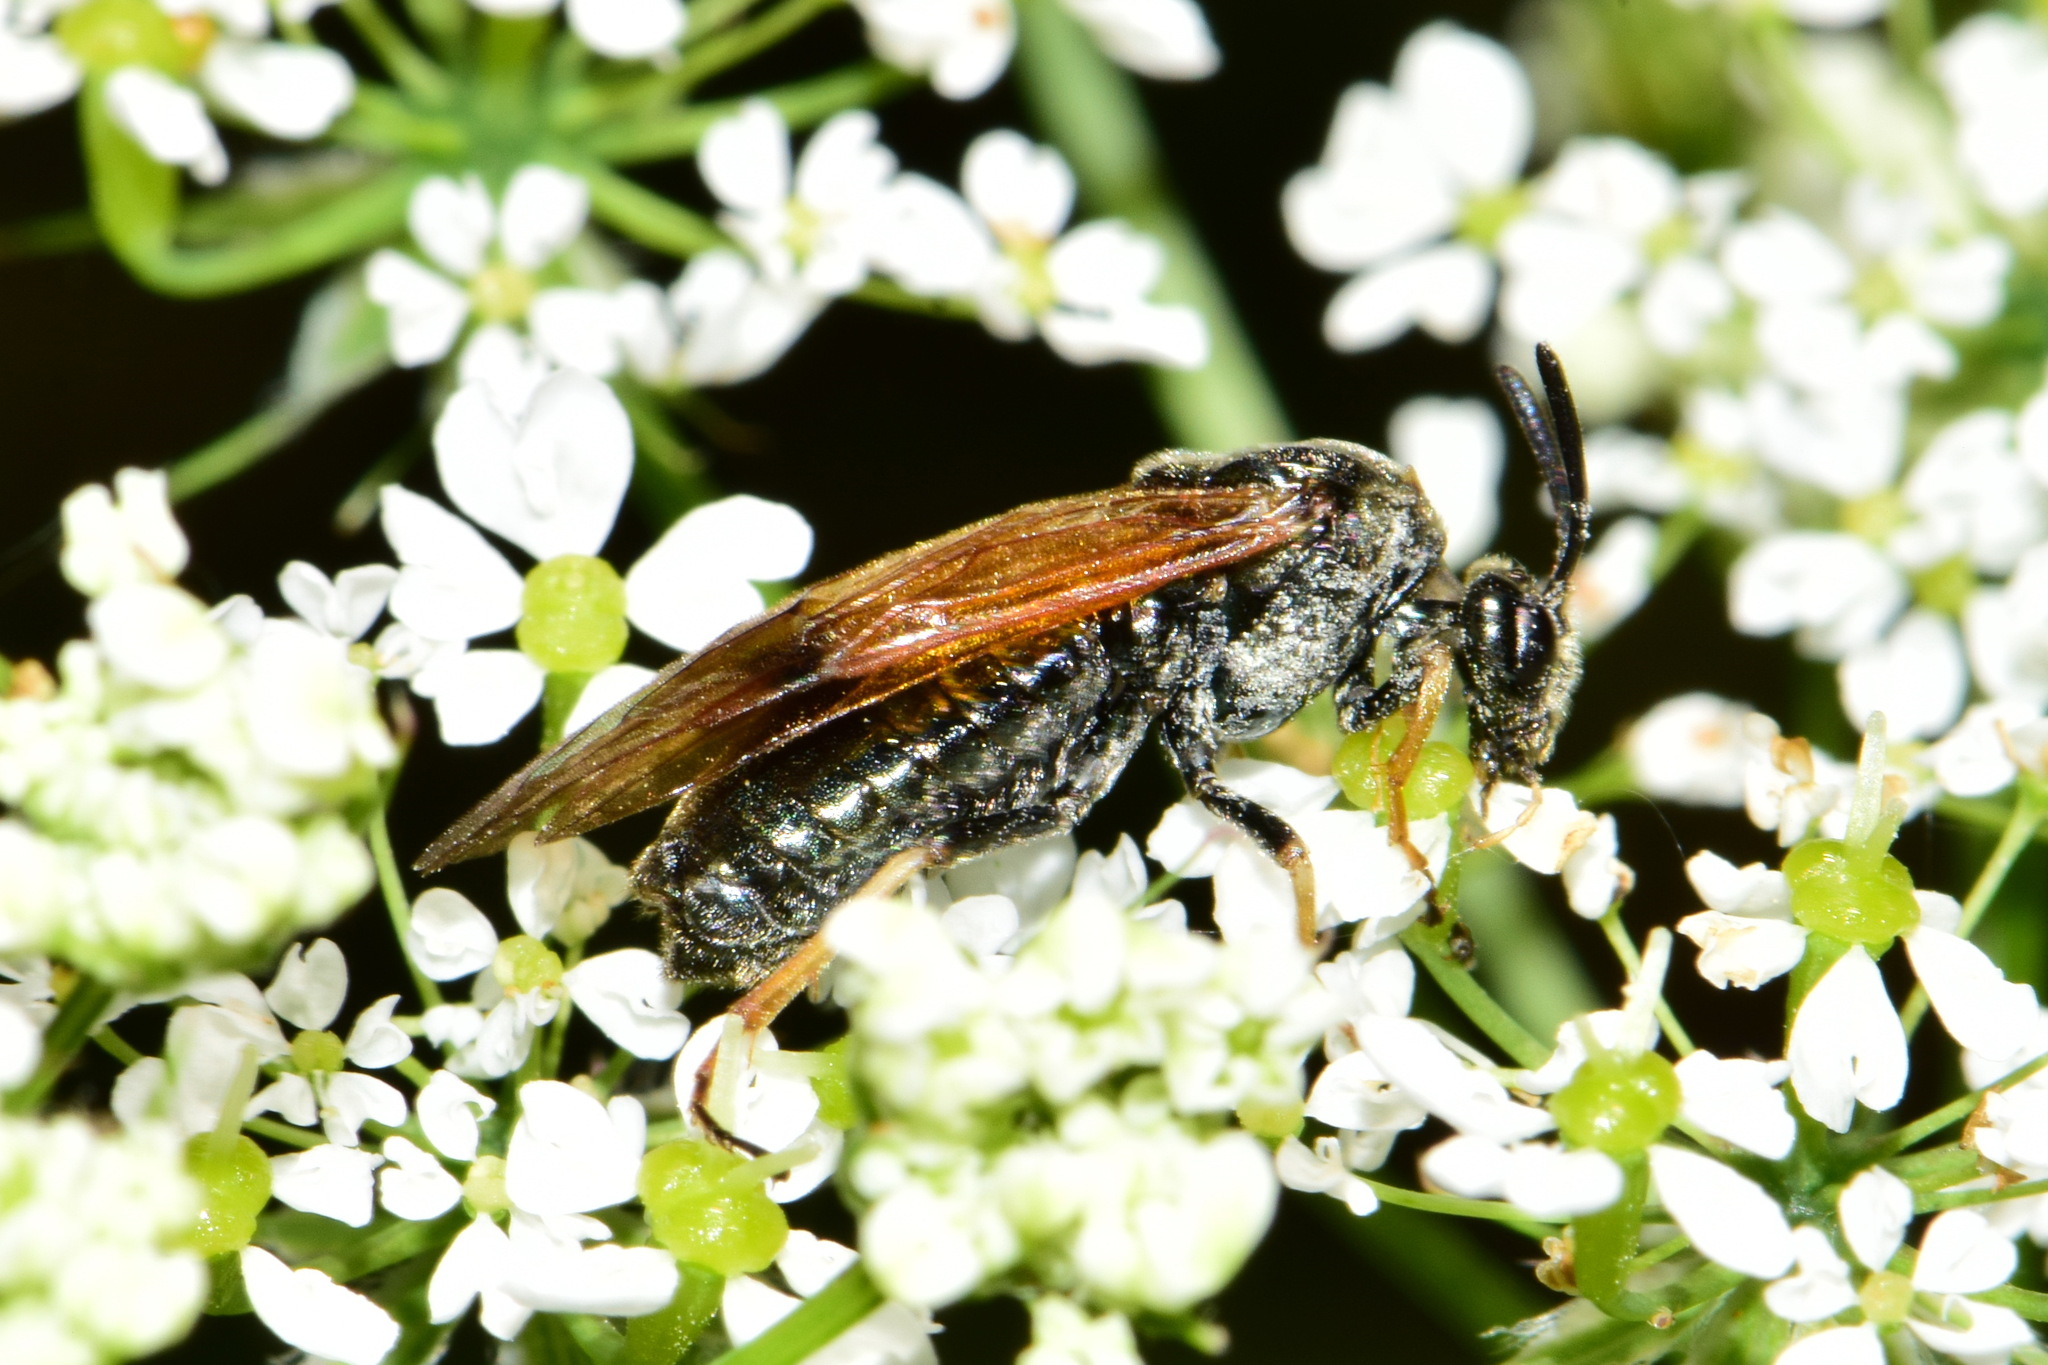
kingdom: Animalia
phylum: Arthropoda
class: Insecta
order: Hymenoptera
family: Argidae
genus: Arge
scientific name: Arge ustulata
